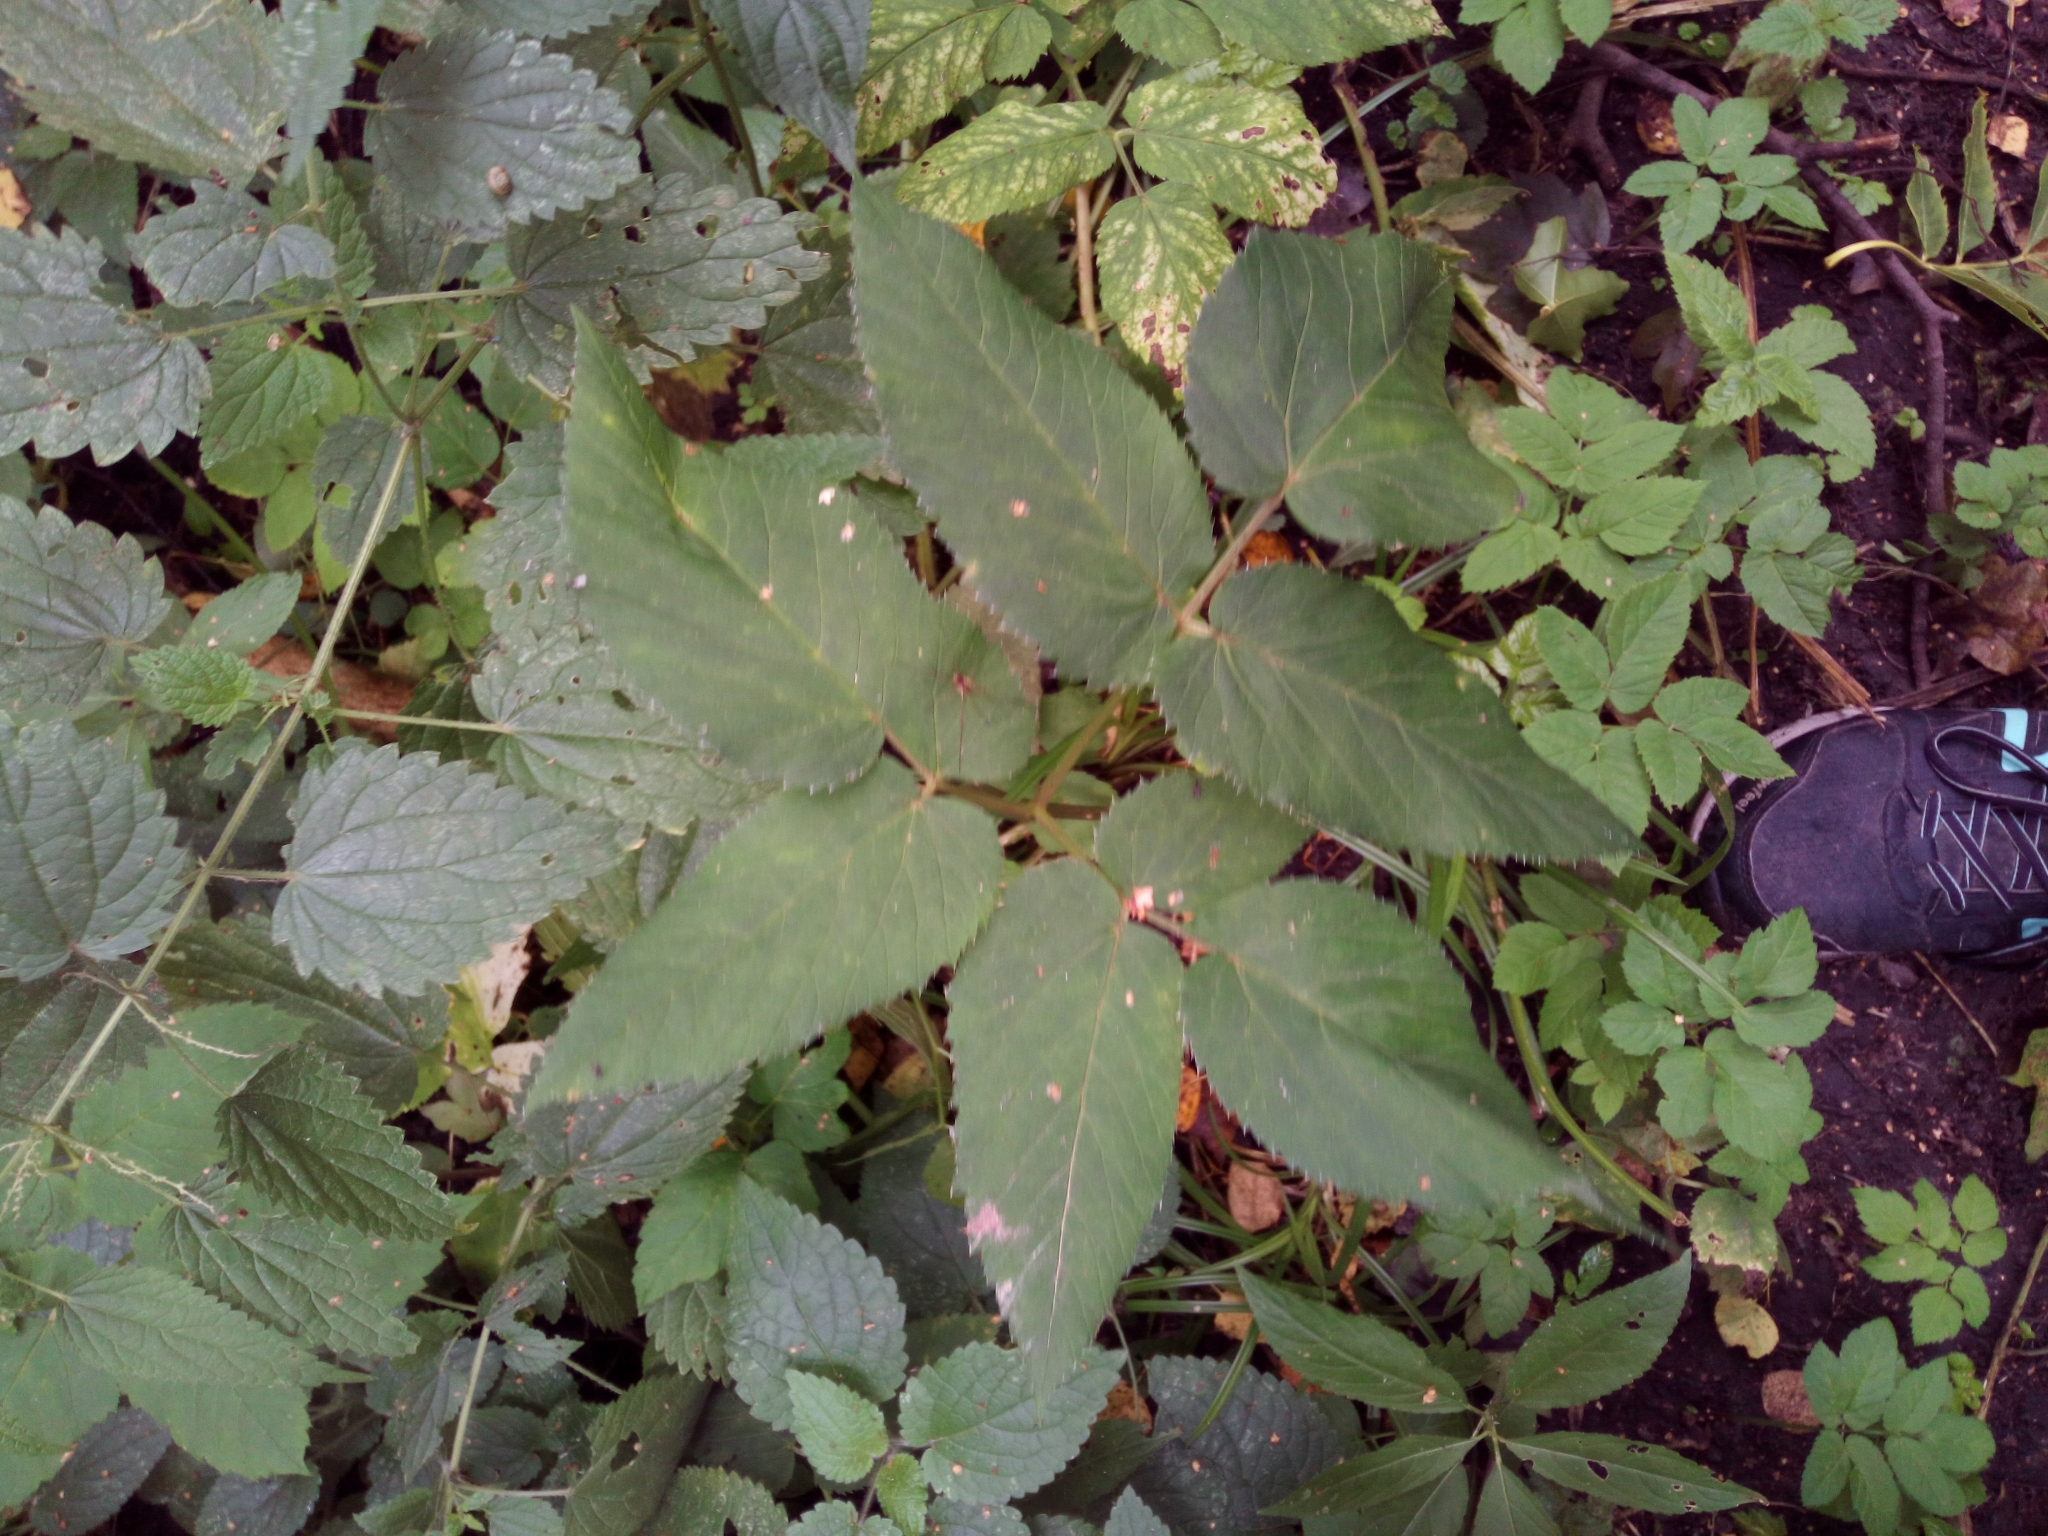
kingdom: Plantae
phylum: Tracheophyta
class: Magnoliopsida
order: Apiales
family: Apiaceae
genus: Aegopodium
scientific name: Aegopodium podagraria
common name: Ground-elder
